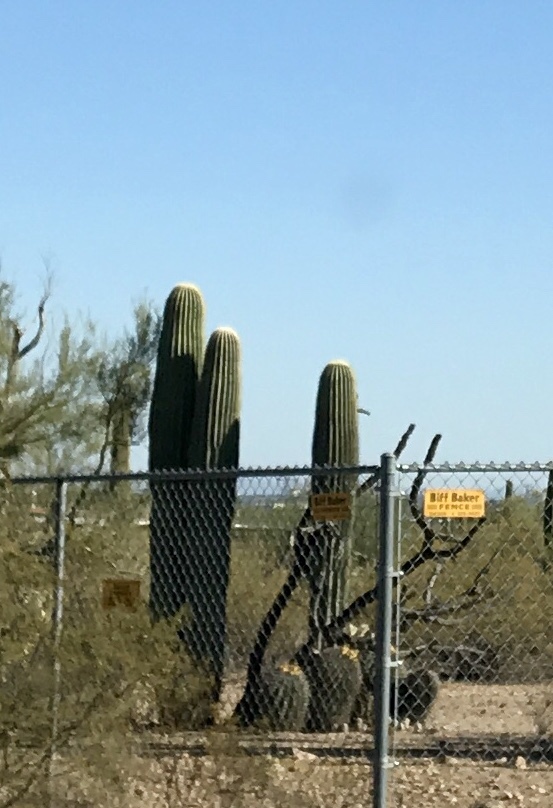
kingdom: Plantae
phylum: Tracheophyta
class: Magnoliopsida
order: Caryophyllales
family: Cactaceae
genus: Carnegiea
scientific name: Carnegiea gigantea
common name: Saguaro
